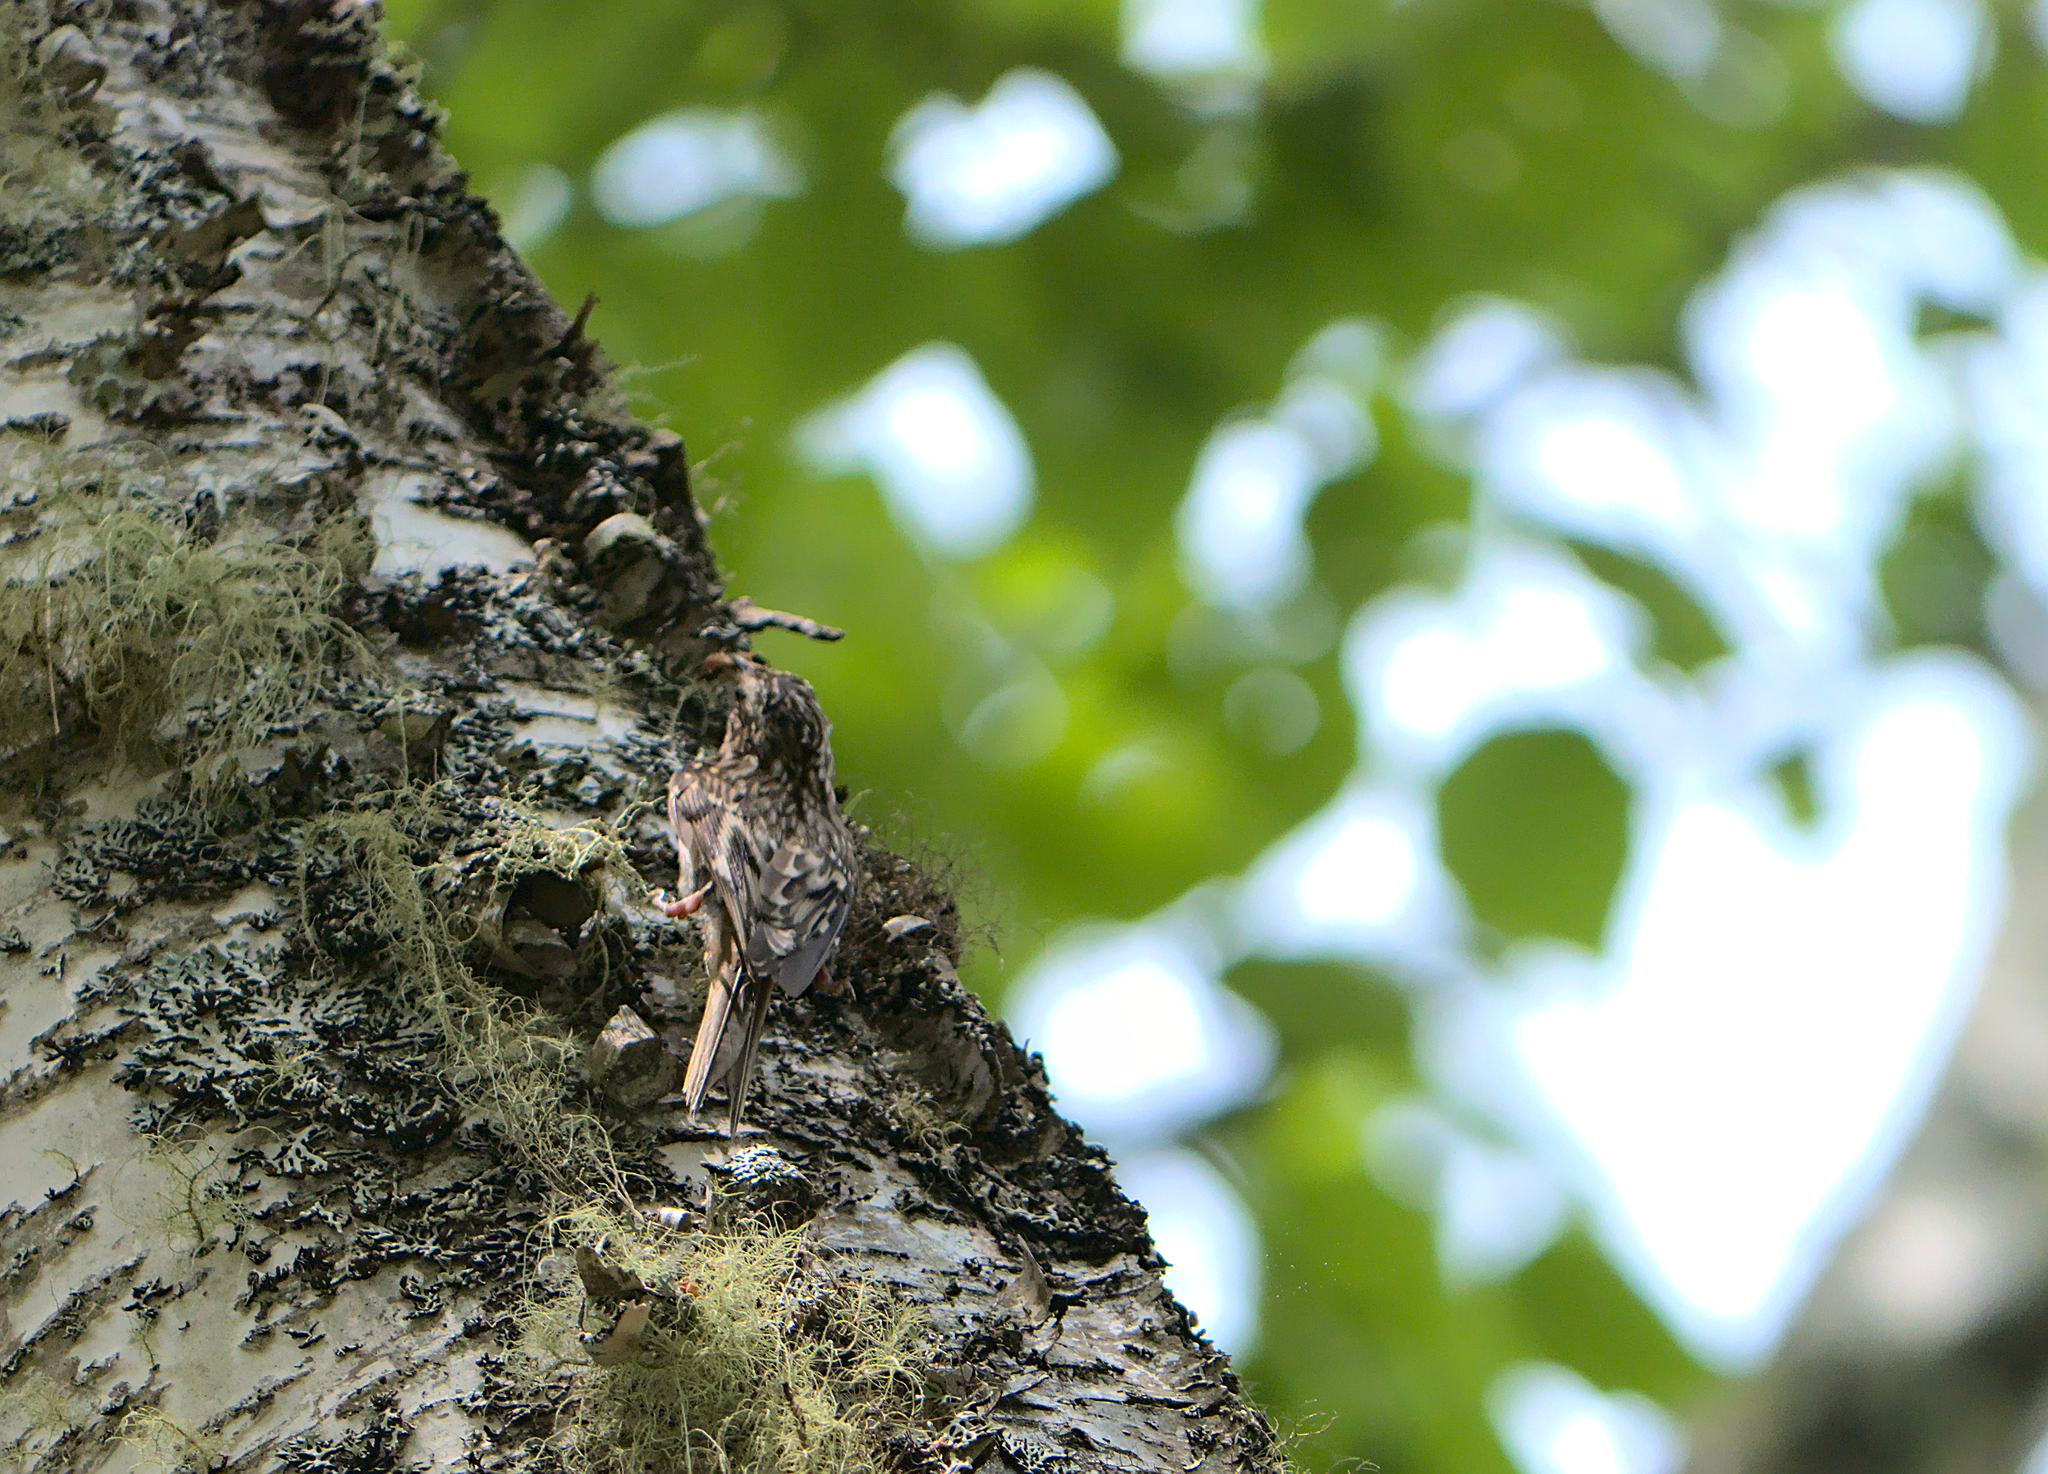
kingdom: Animalia
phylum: Chordata
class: Aves
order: Passeriformes
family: Certhiidae
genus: Certhia
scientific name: Certhia americana
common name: Brown creeper
